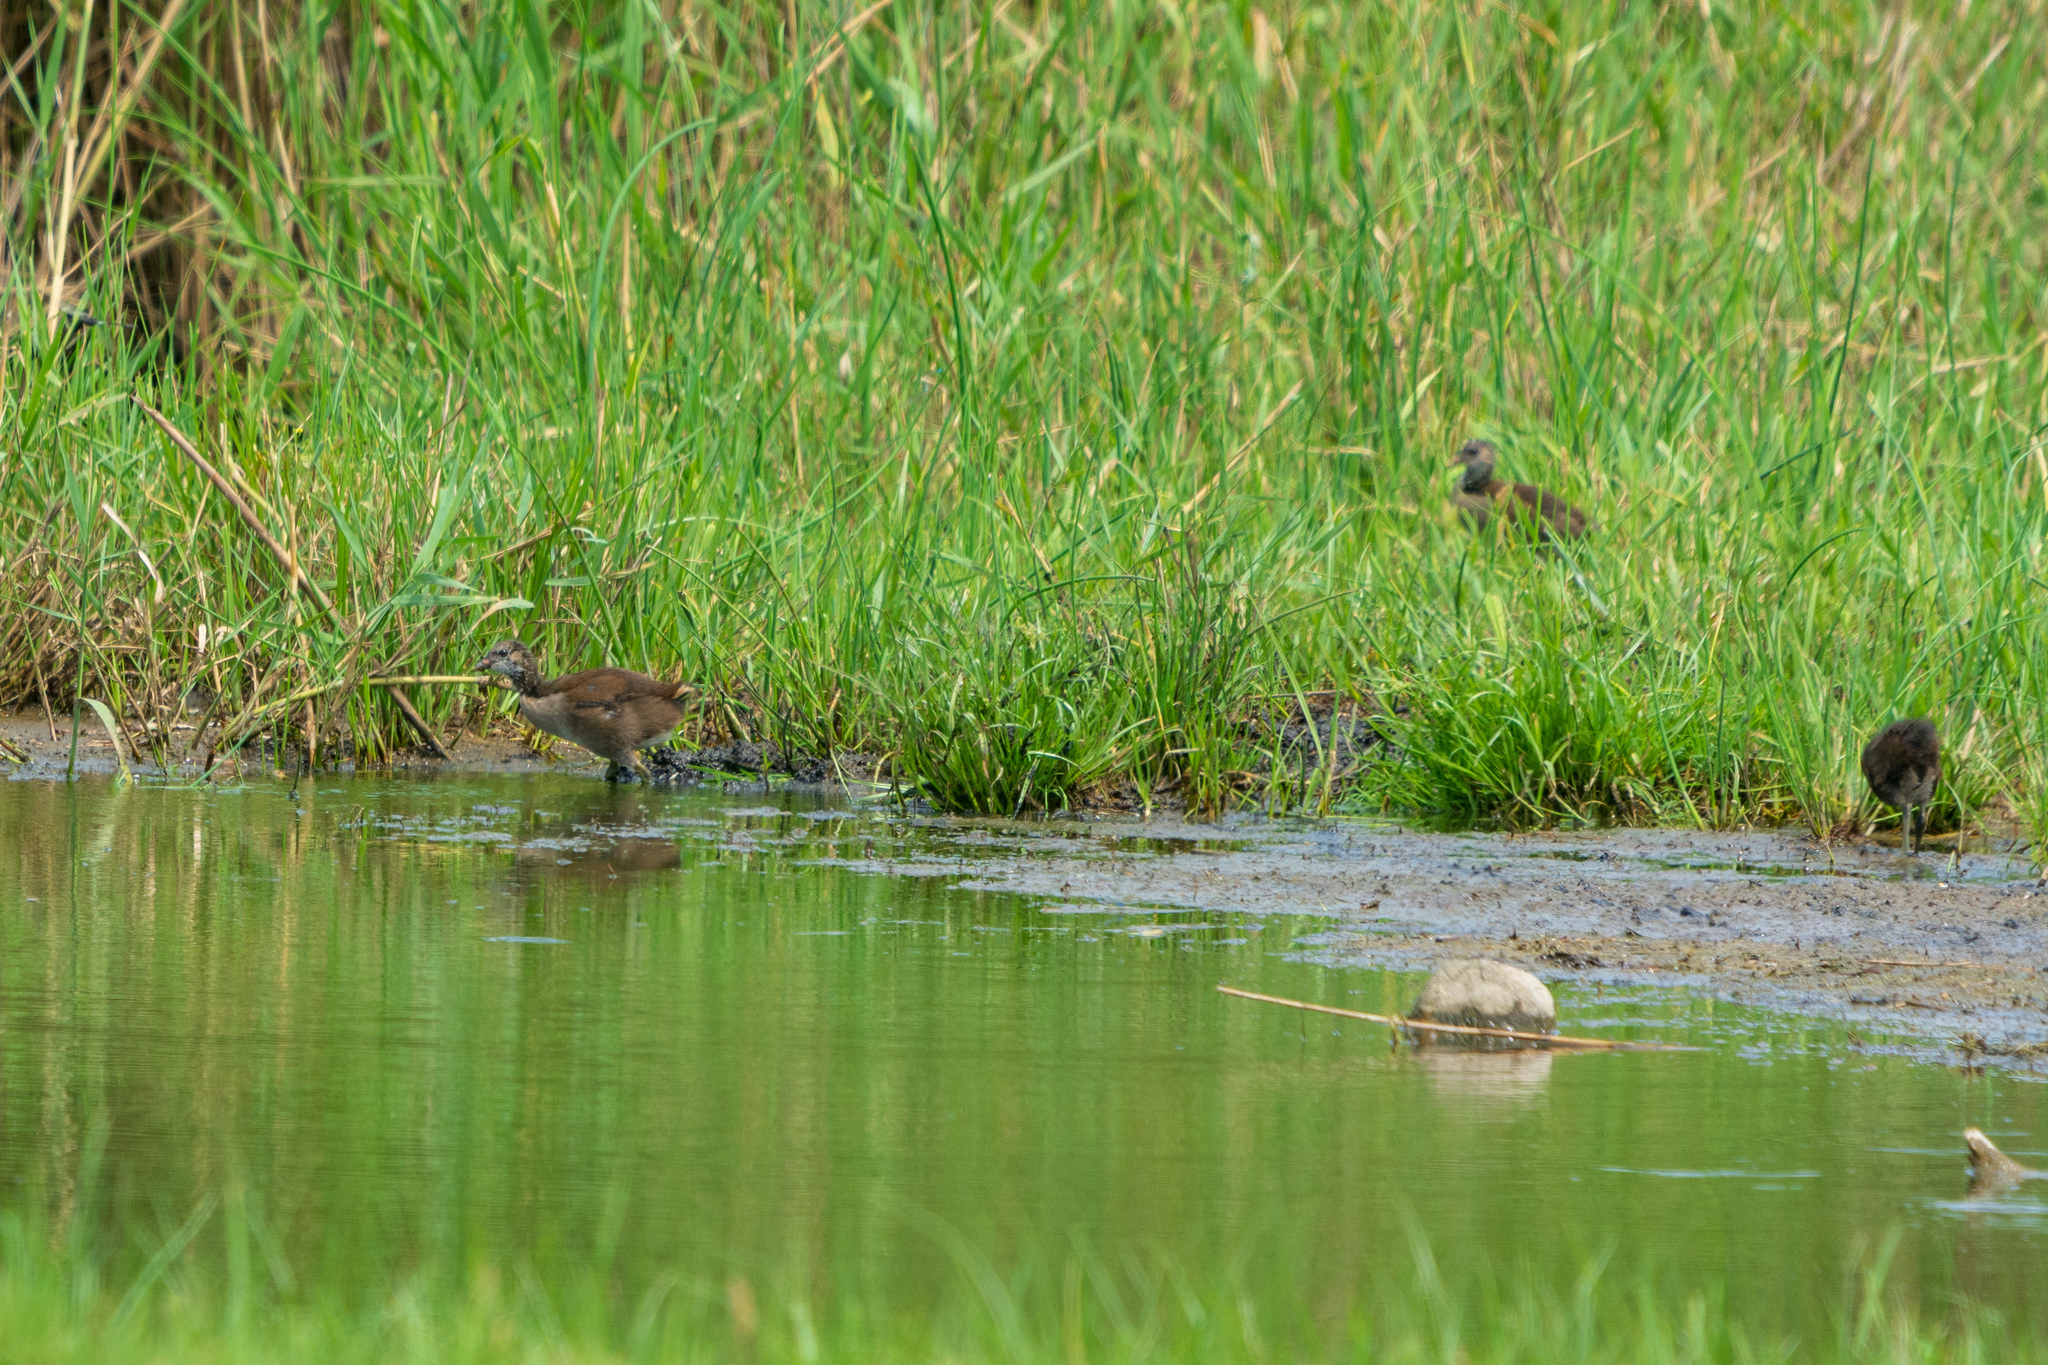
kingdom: Animalia
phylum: Chordata
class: Aves
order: Gruiformes
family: Rallidae
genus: Gallinula
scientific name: Gallinula chloropus
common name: Common moorhen
